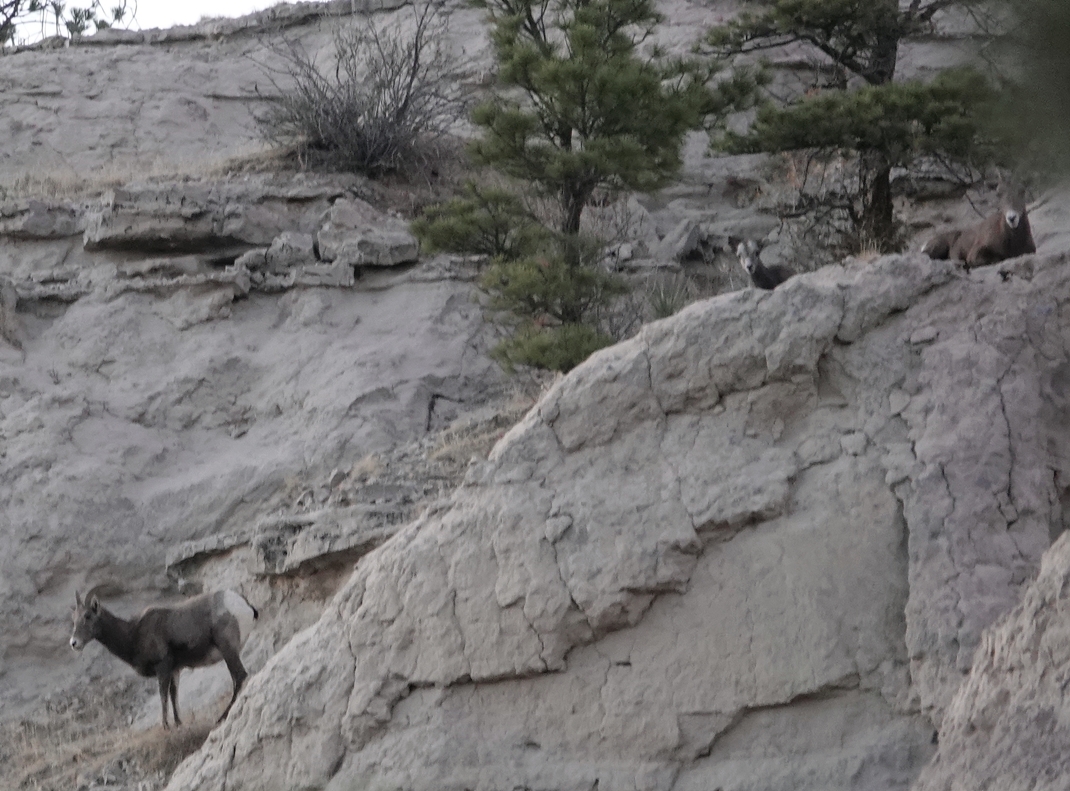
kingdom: Animalia
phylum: Chordata
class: Mammalia
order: Artiodactyla
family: Bovidae
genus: Ovis
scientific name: Ovis canadensis
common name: Bighorn sheep
